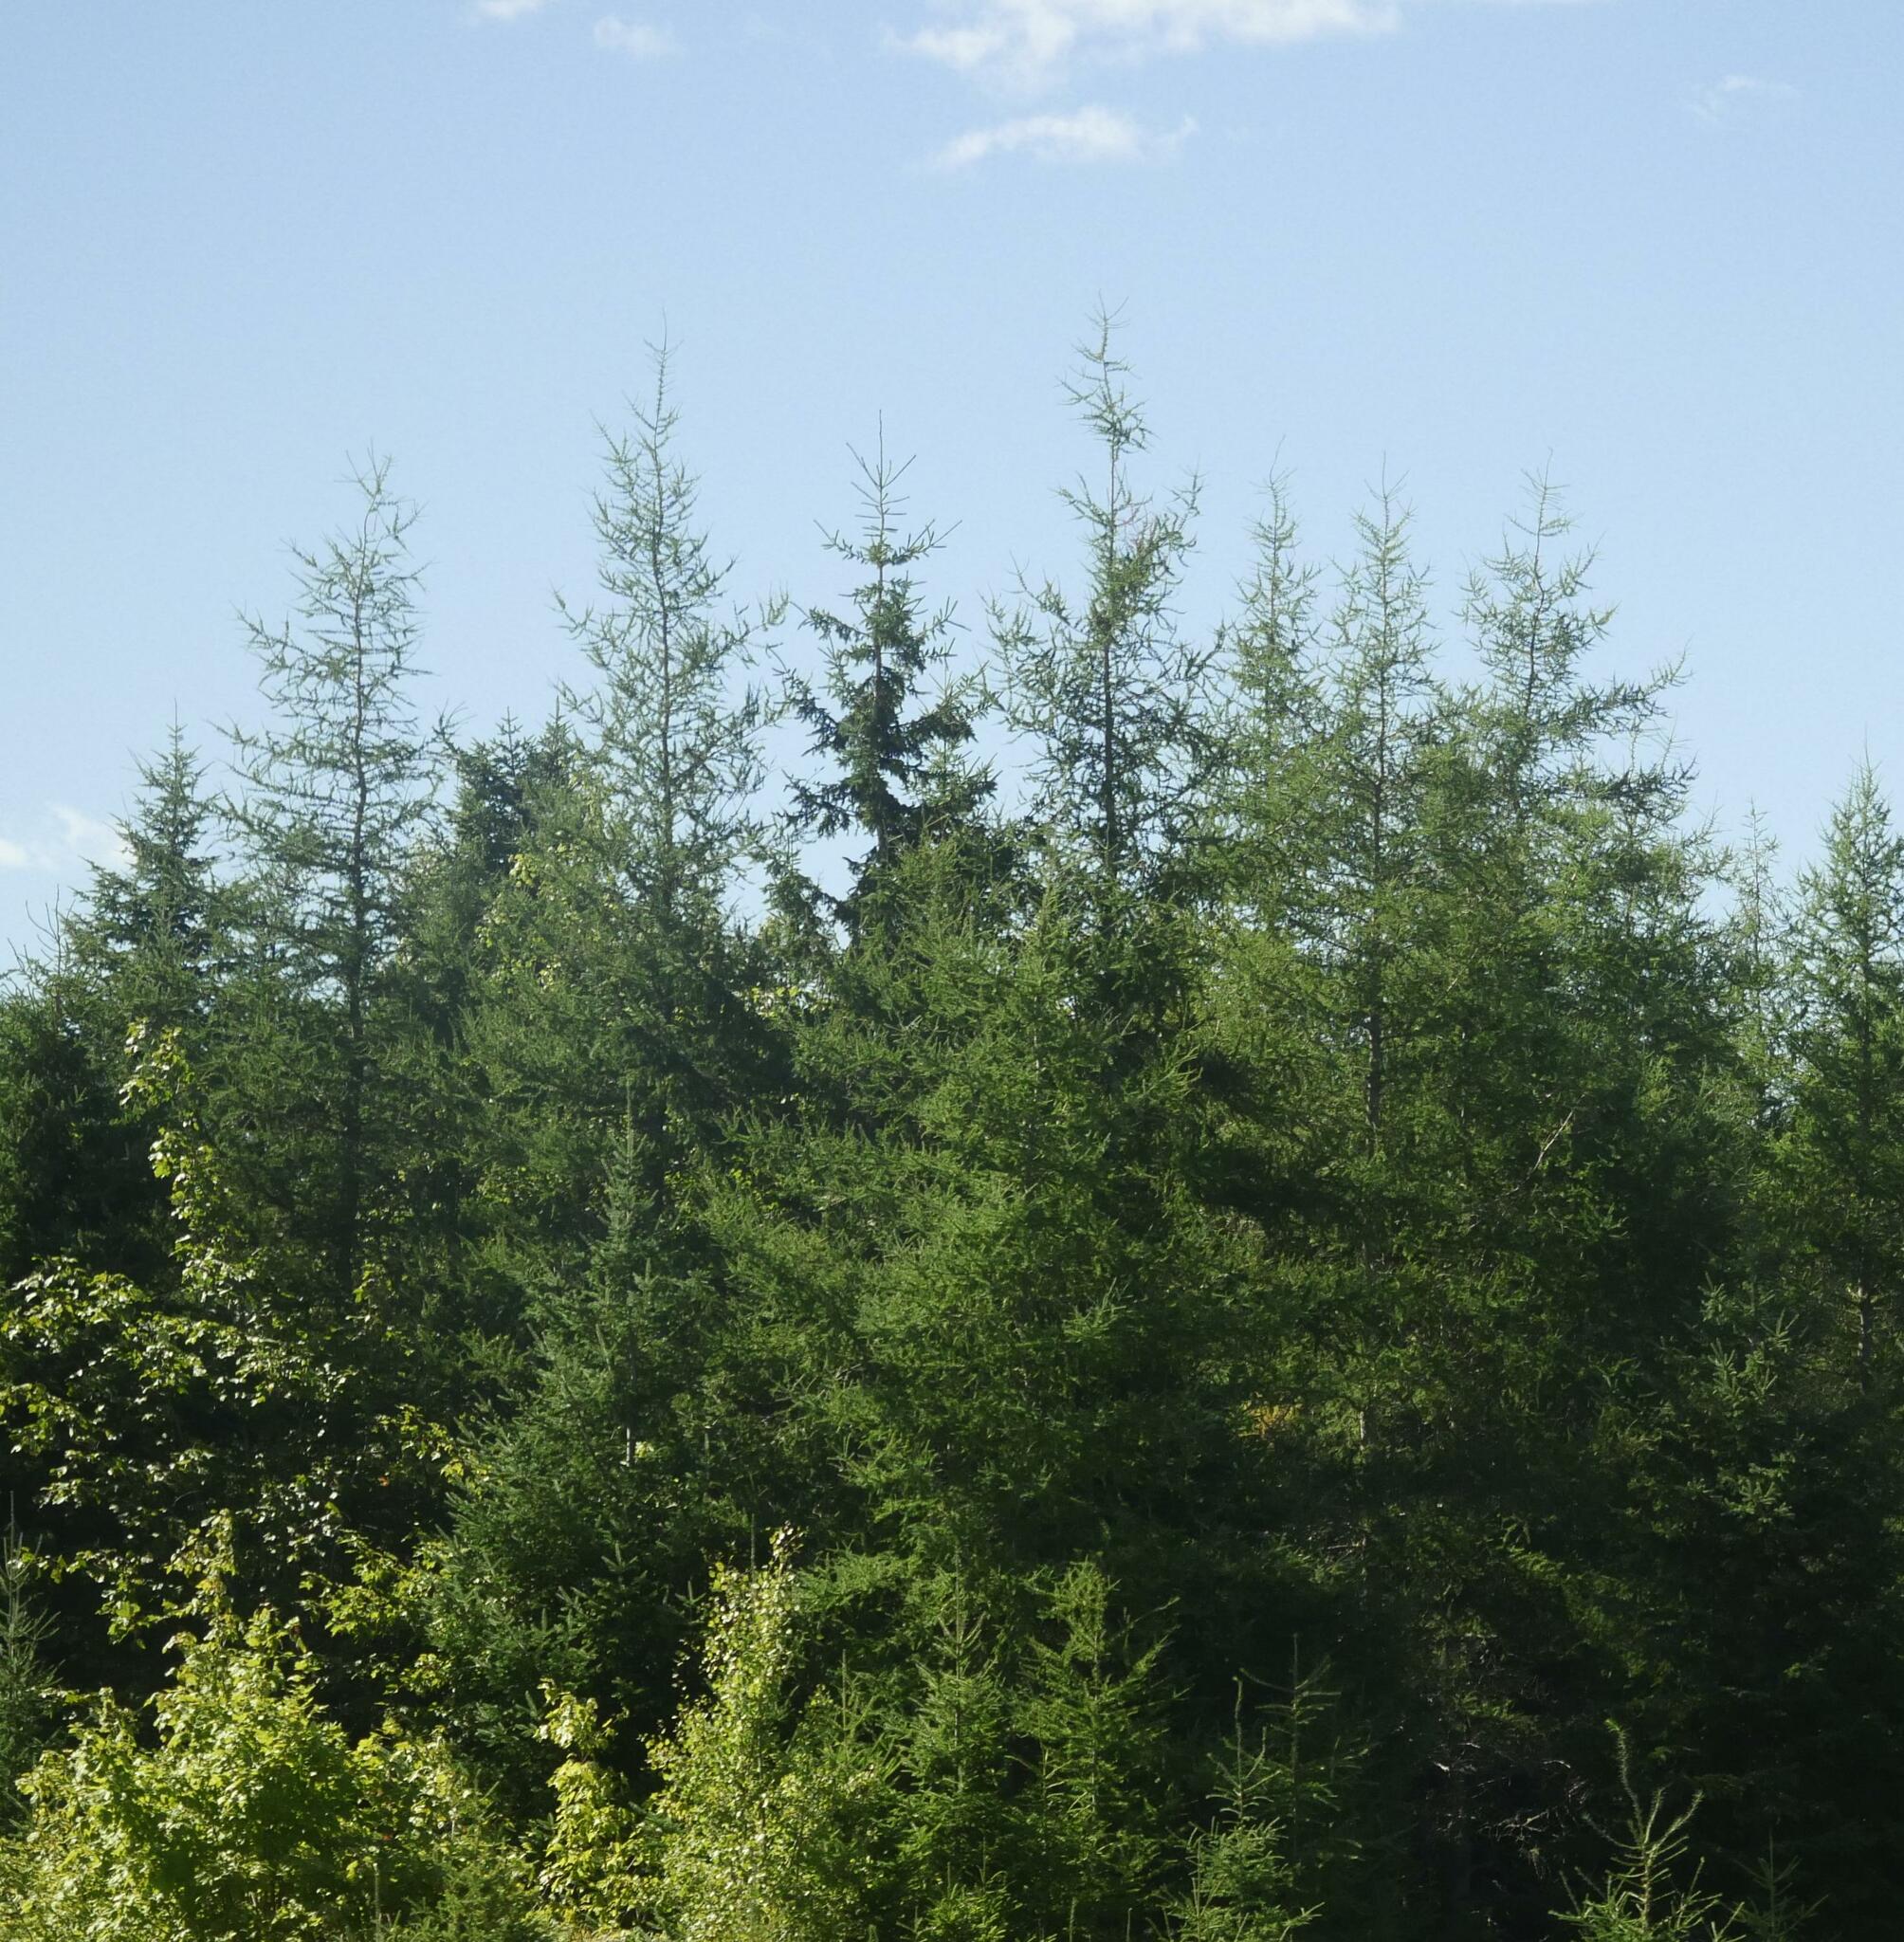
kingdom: Plantae
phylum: Tracheophyta
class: Pinopsida
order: Pinales
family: Pinaceae
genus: Larix
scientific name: Larix laricina
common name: American larch
